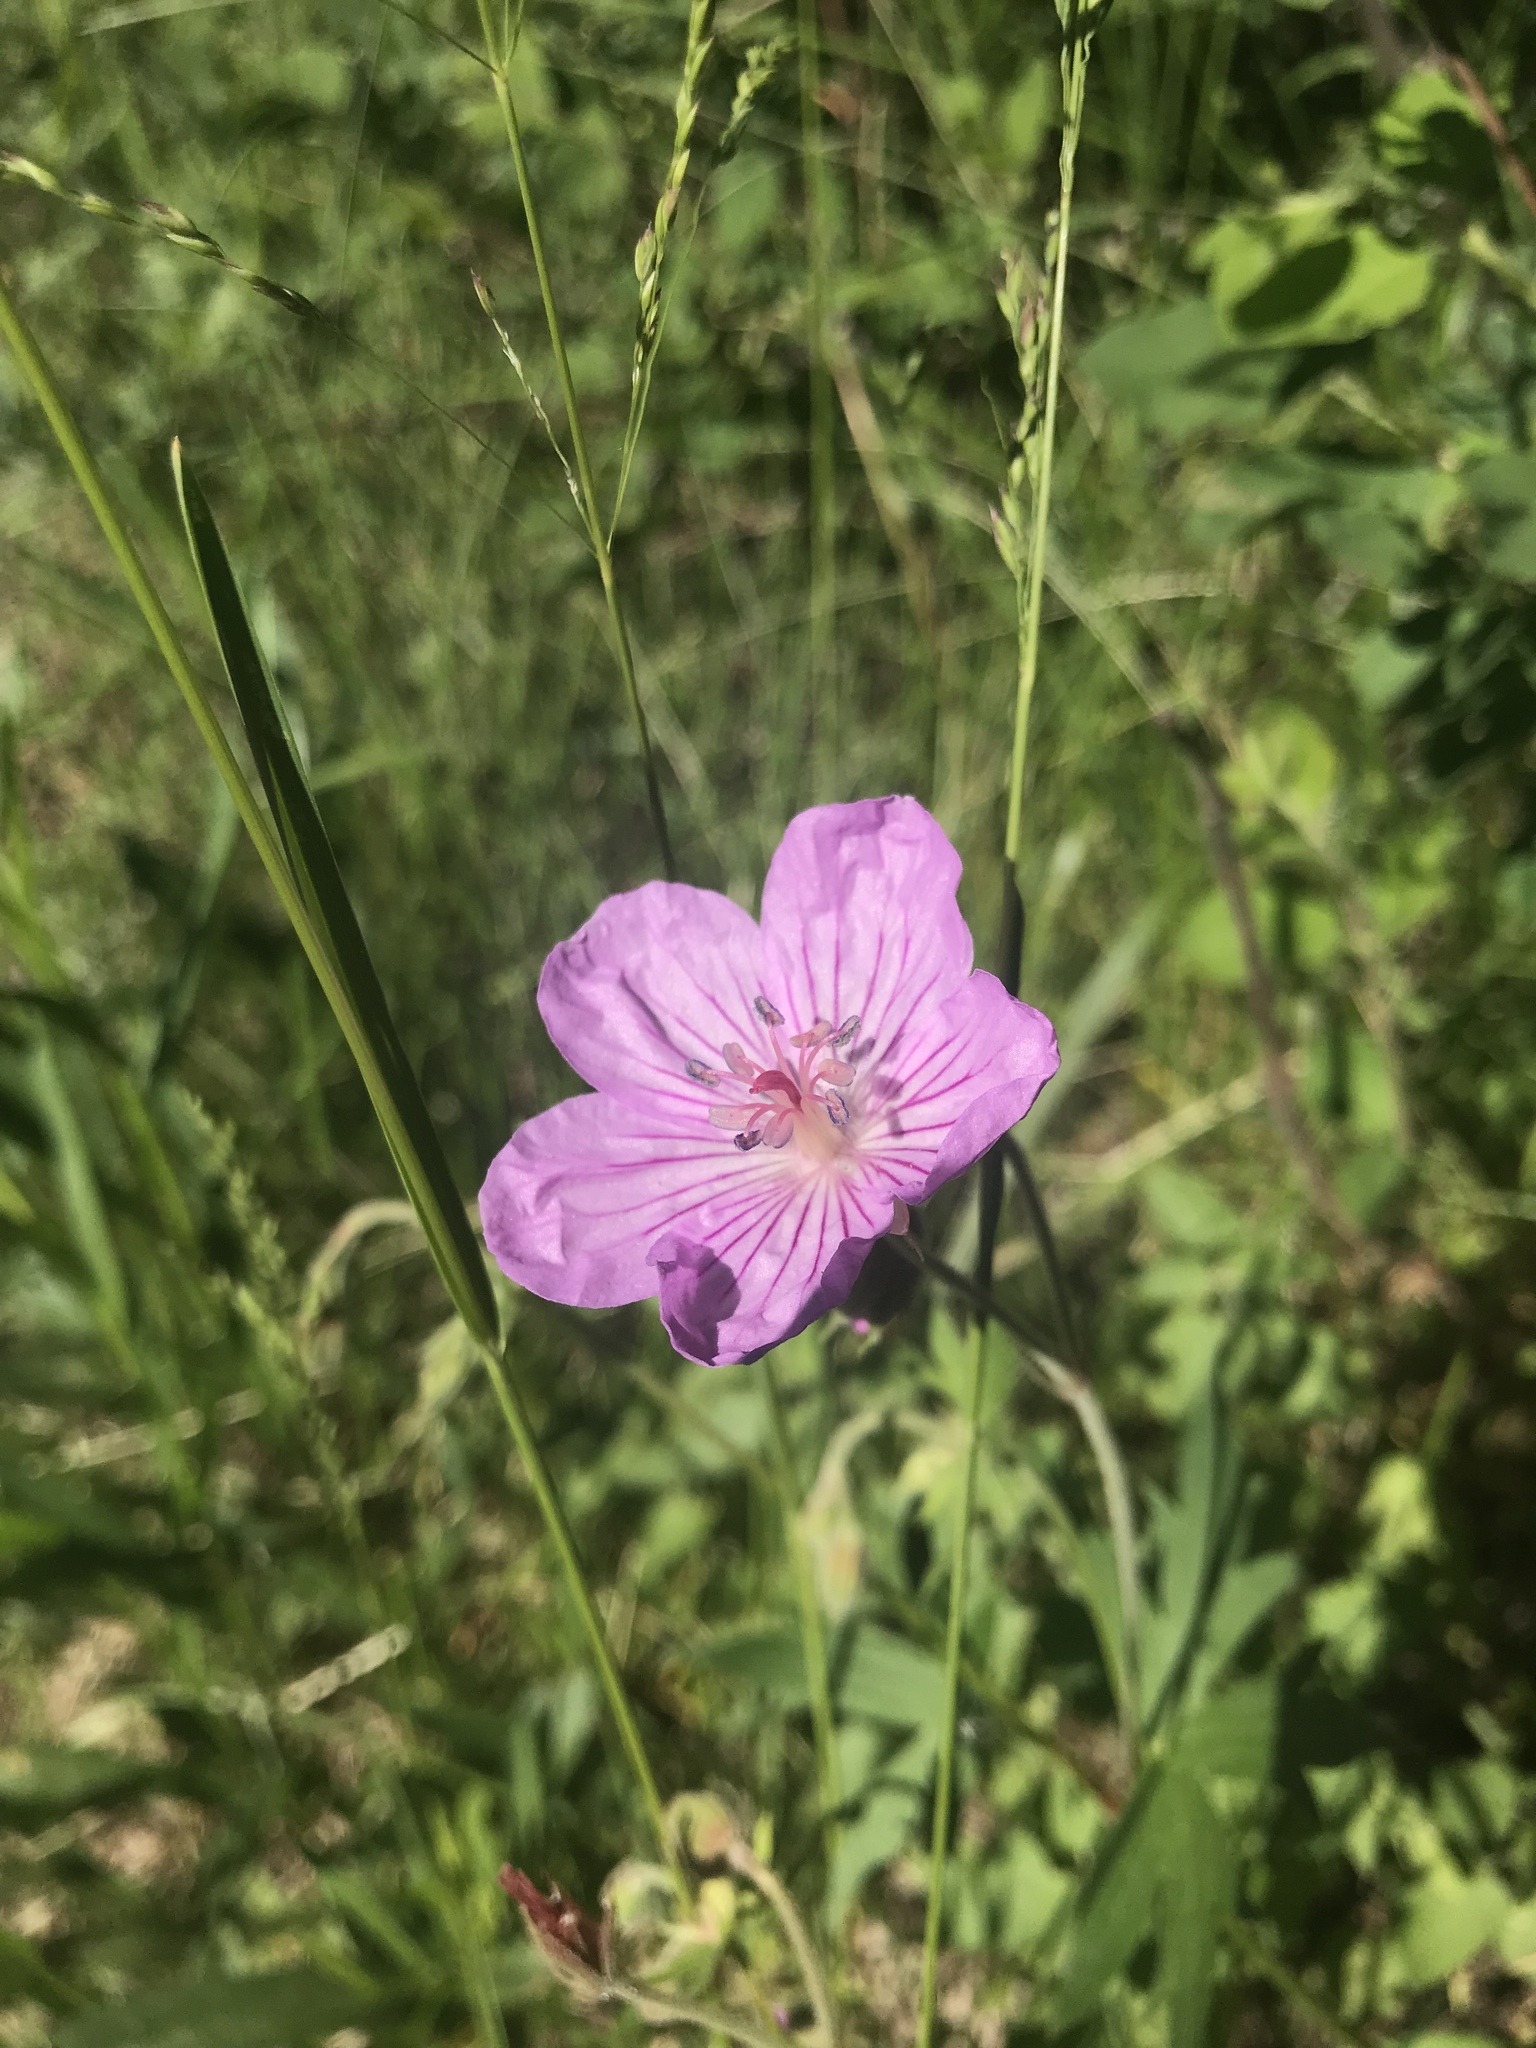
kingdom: Plantae
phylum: Tracheophyta
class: Magnoliopsida
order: Geraniales
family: Geraniaceae
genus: Geranium
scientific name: Geranium viscosissimum
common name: Purple geranium
